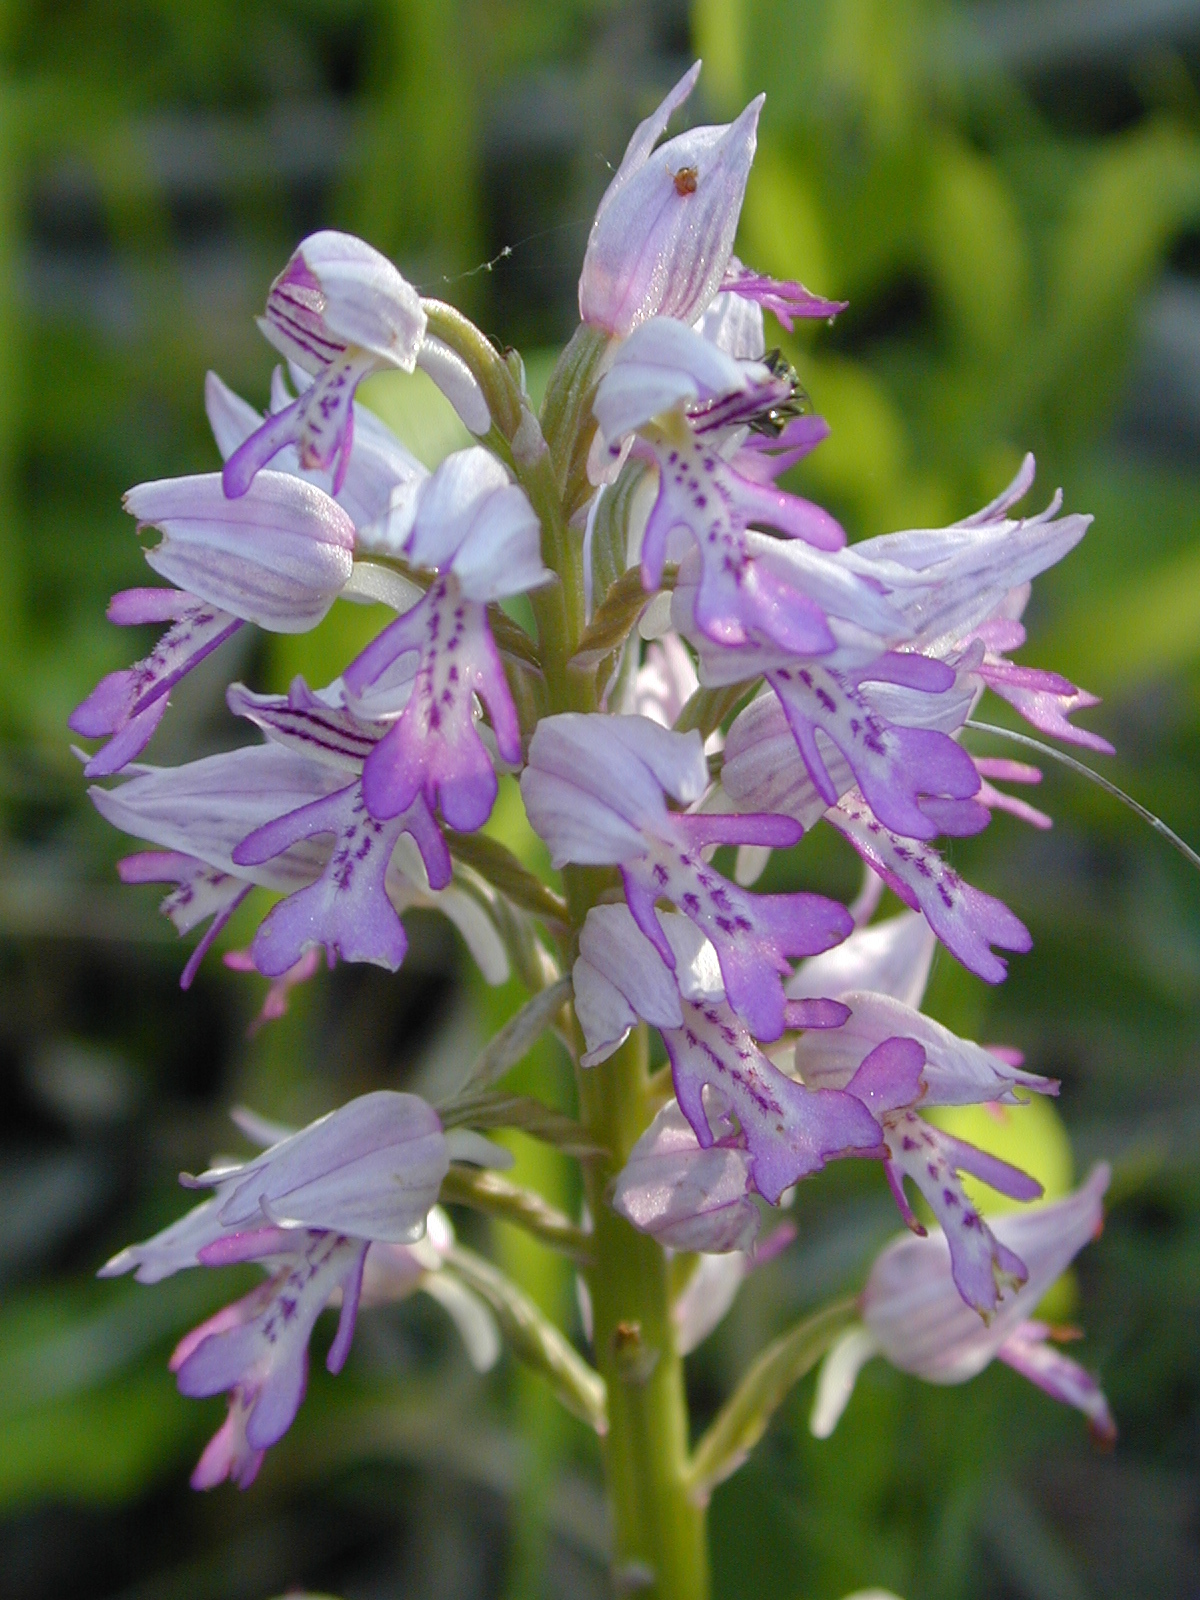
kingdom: Plantae
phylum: Tracheophyta
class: Liliopsida
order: Asparagales
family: Orchidaceae
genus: Orchis
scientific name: Orchis militaris
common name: Military orchid
